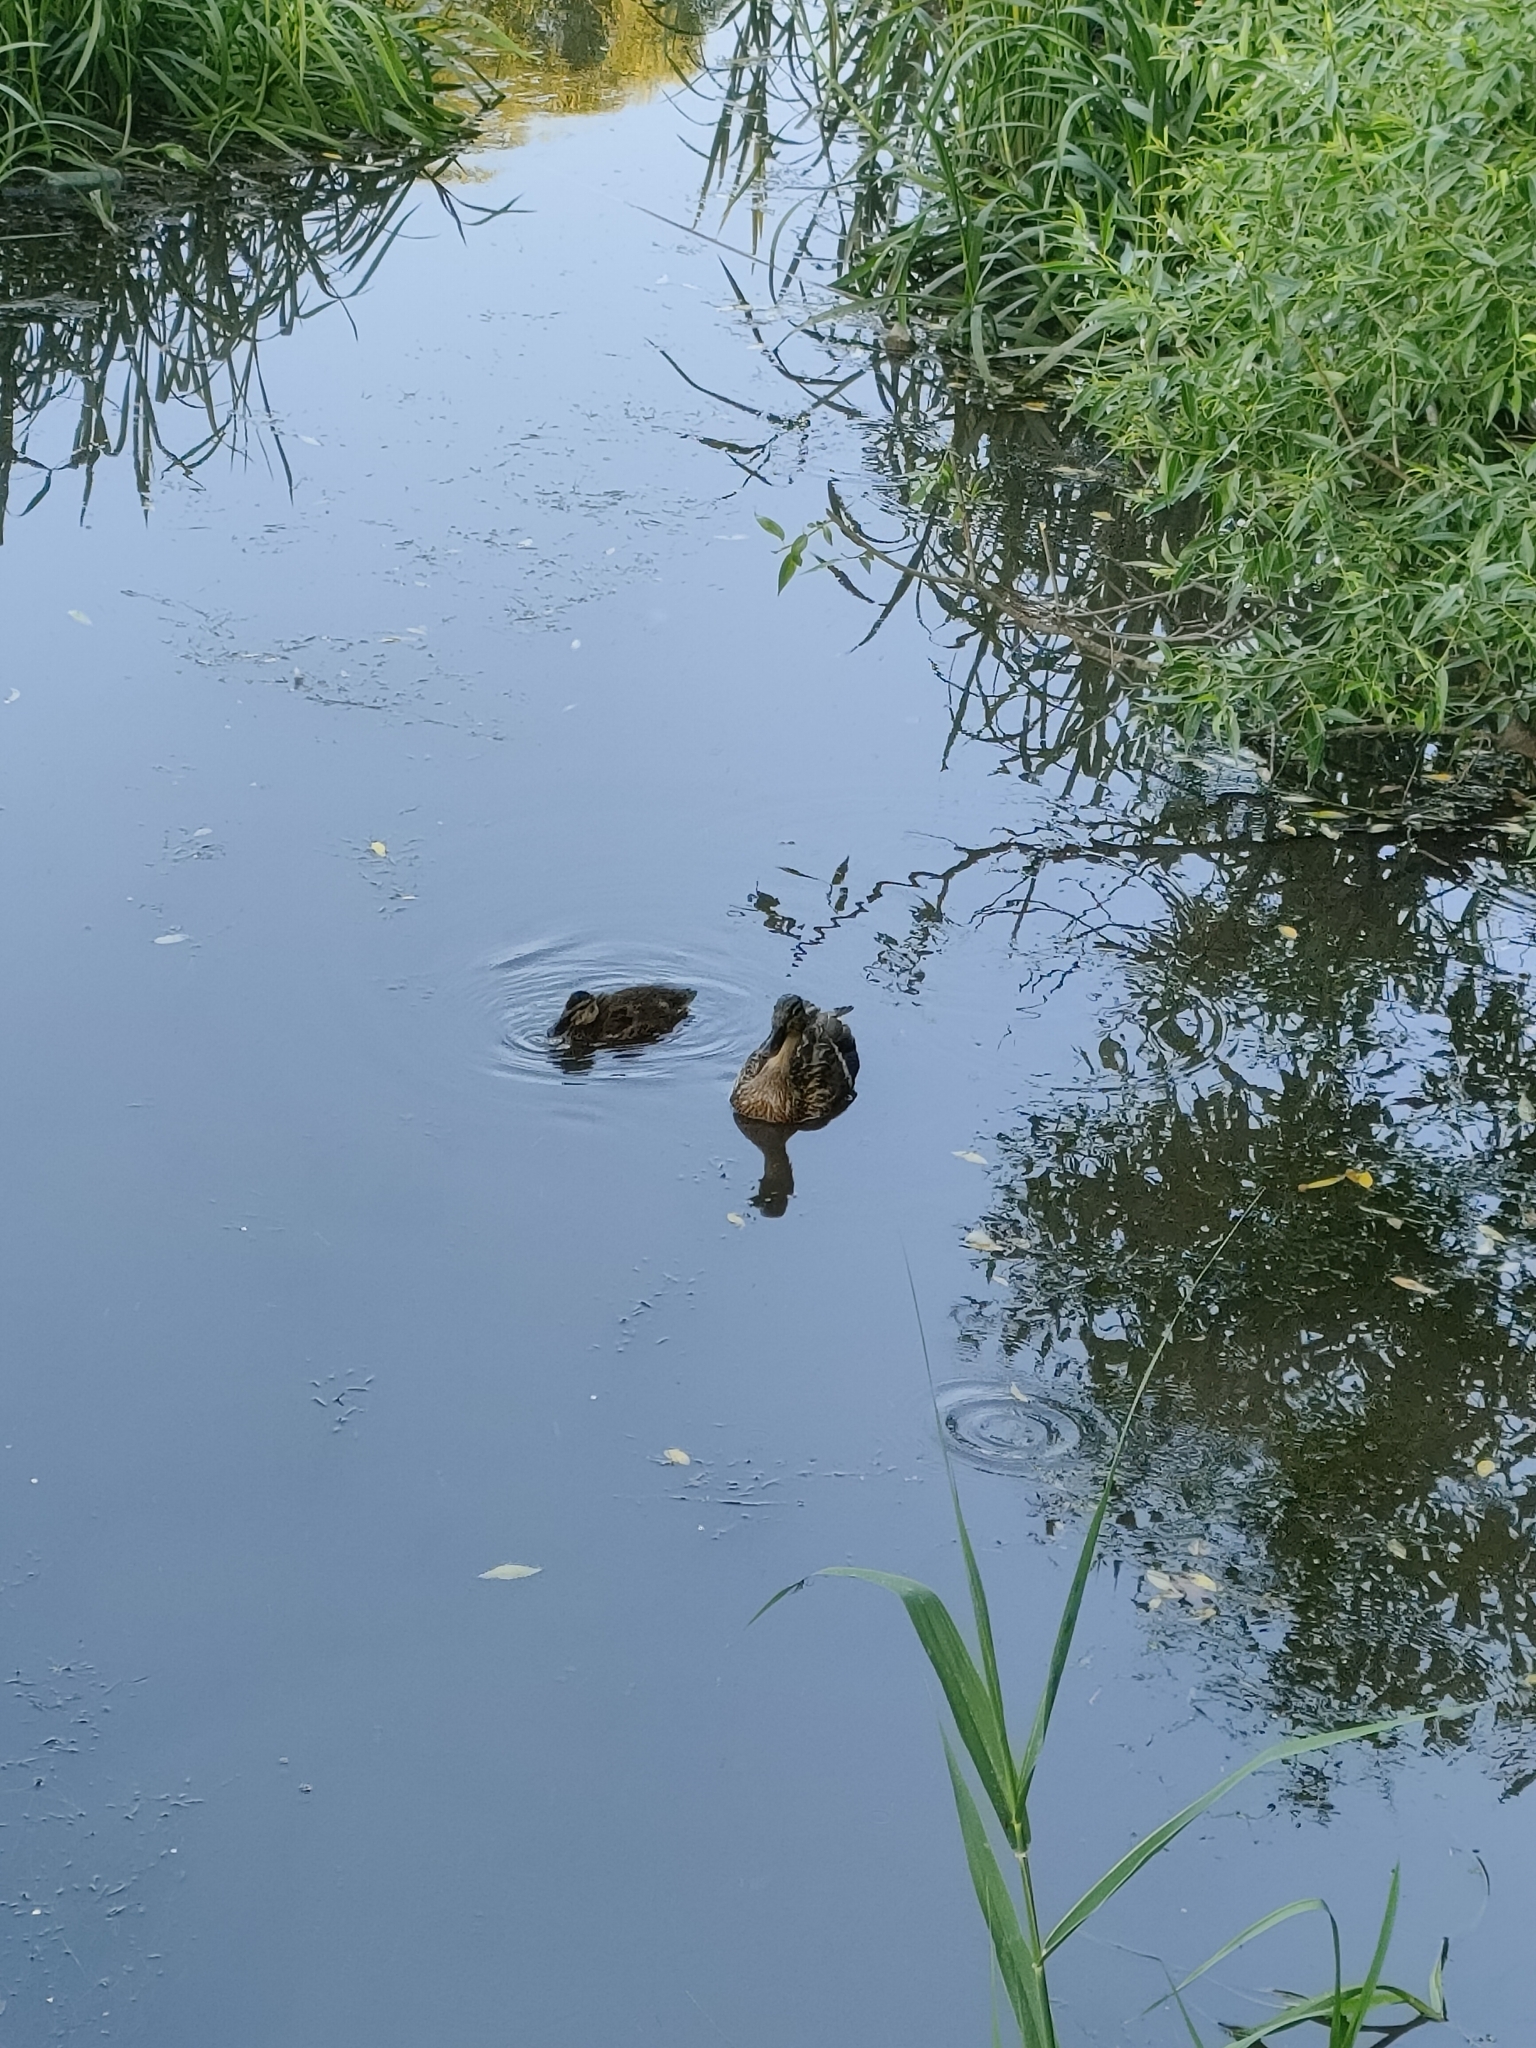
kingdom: Animalia
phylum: Chordata
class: Aves
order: Anseriformes
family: Anatidae
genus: Anas
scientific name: Anas platyrhynchos
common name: Mallard
